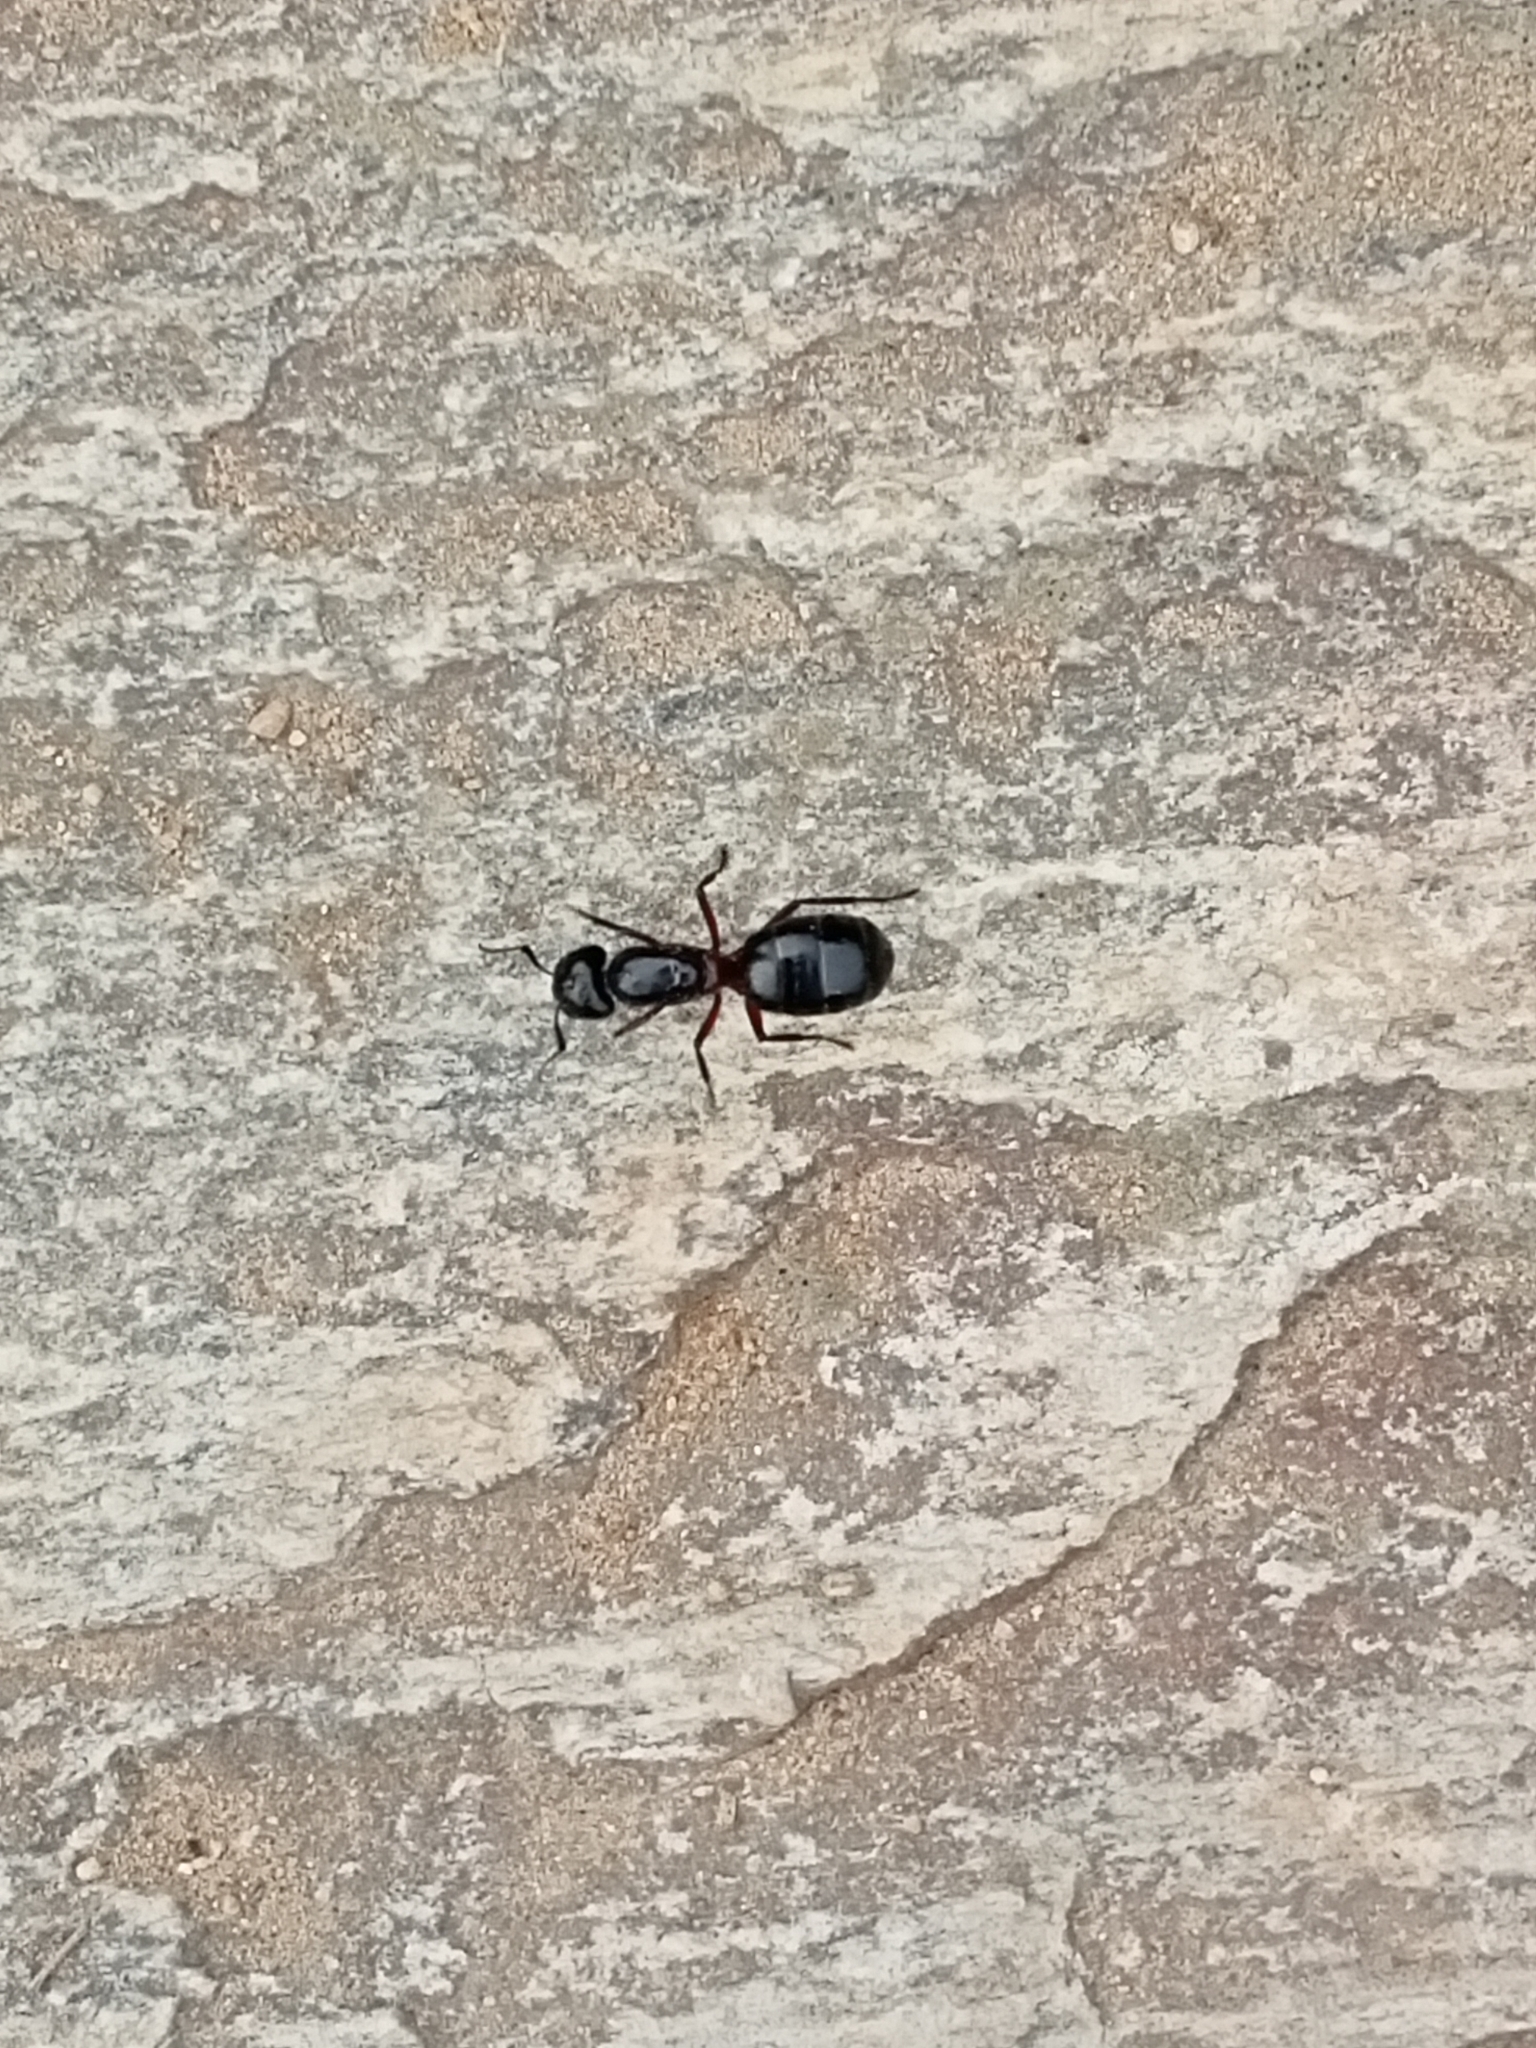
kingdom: Animalia
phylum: Arthropoda
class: Insecta
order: Hymenoptera
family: Formicidae
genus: Camponotus
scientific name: Camponotus herculeanus
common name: Hercules ant
